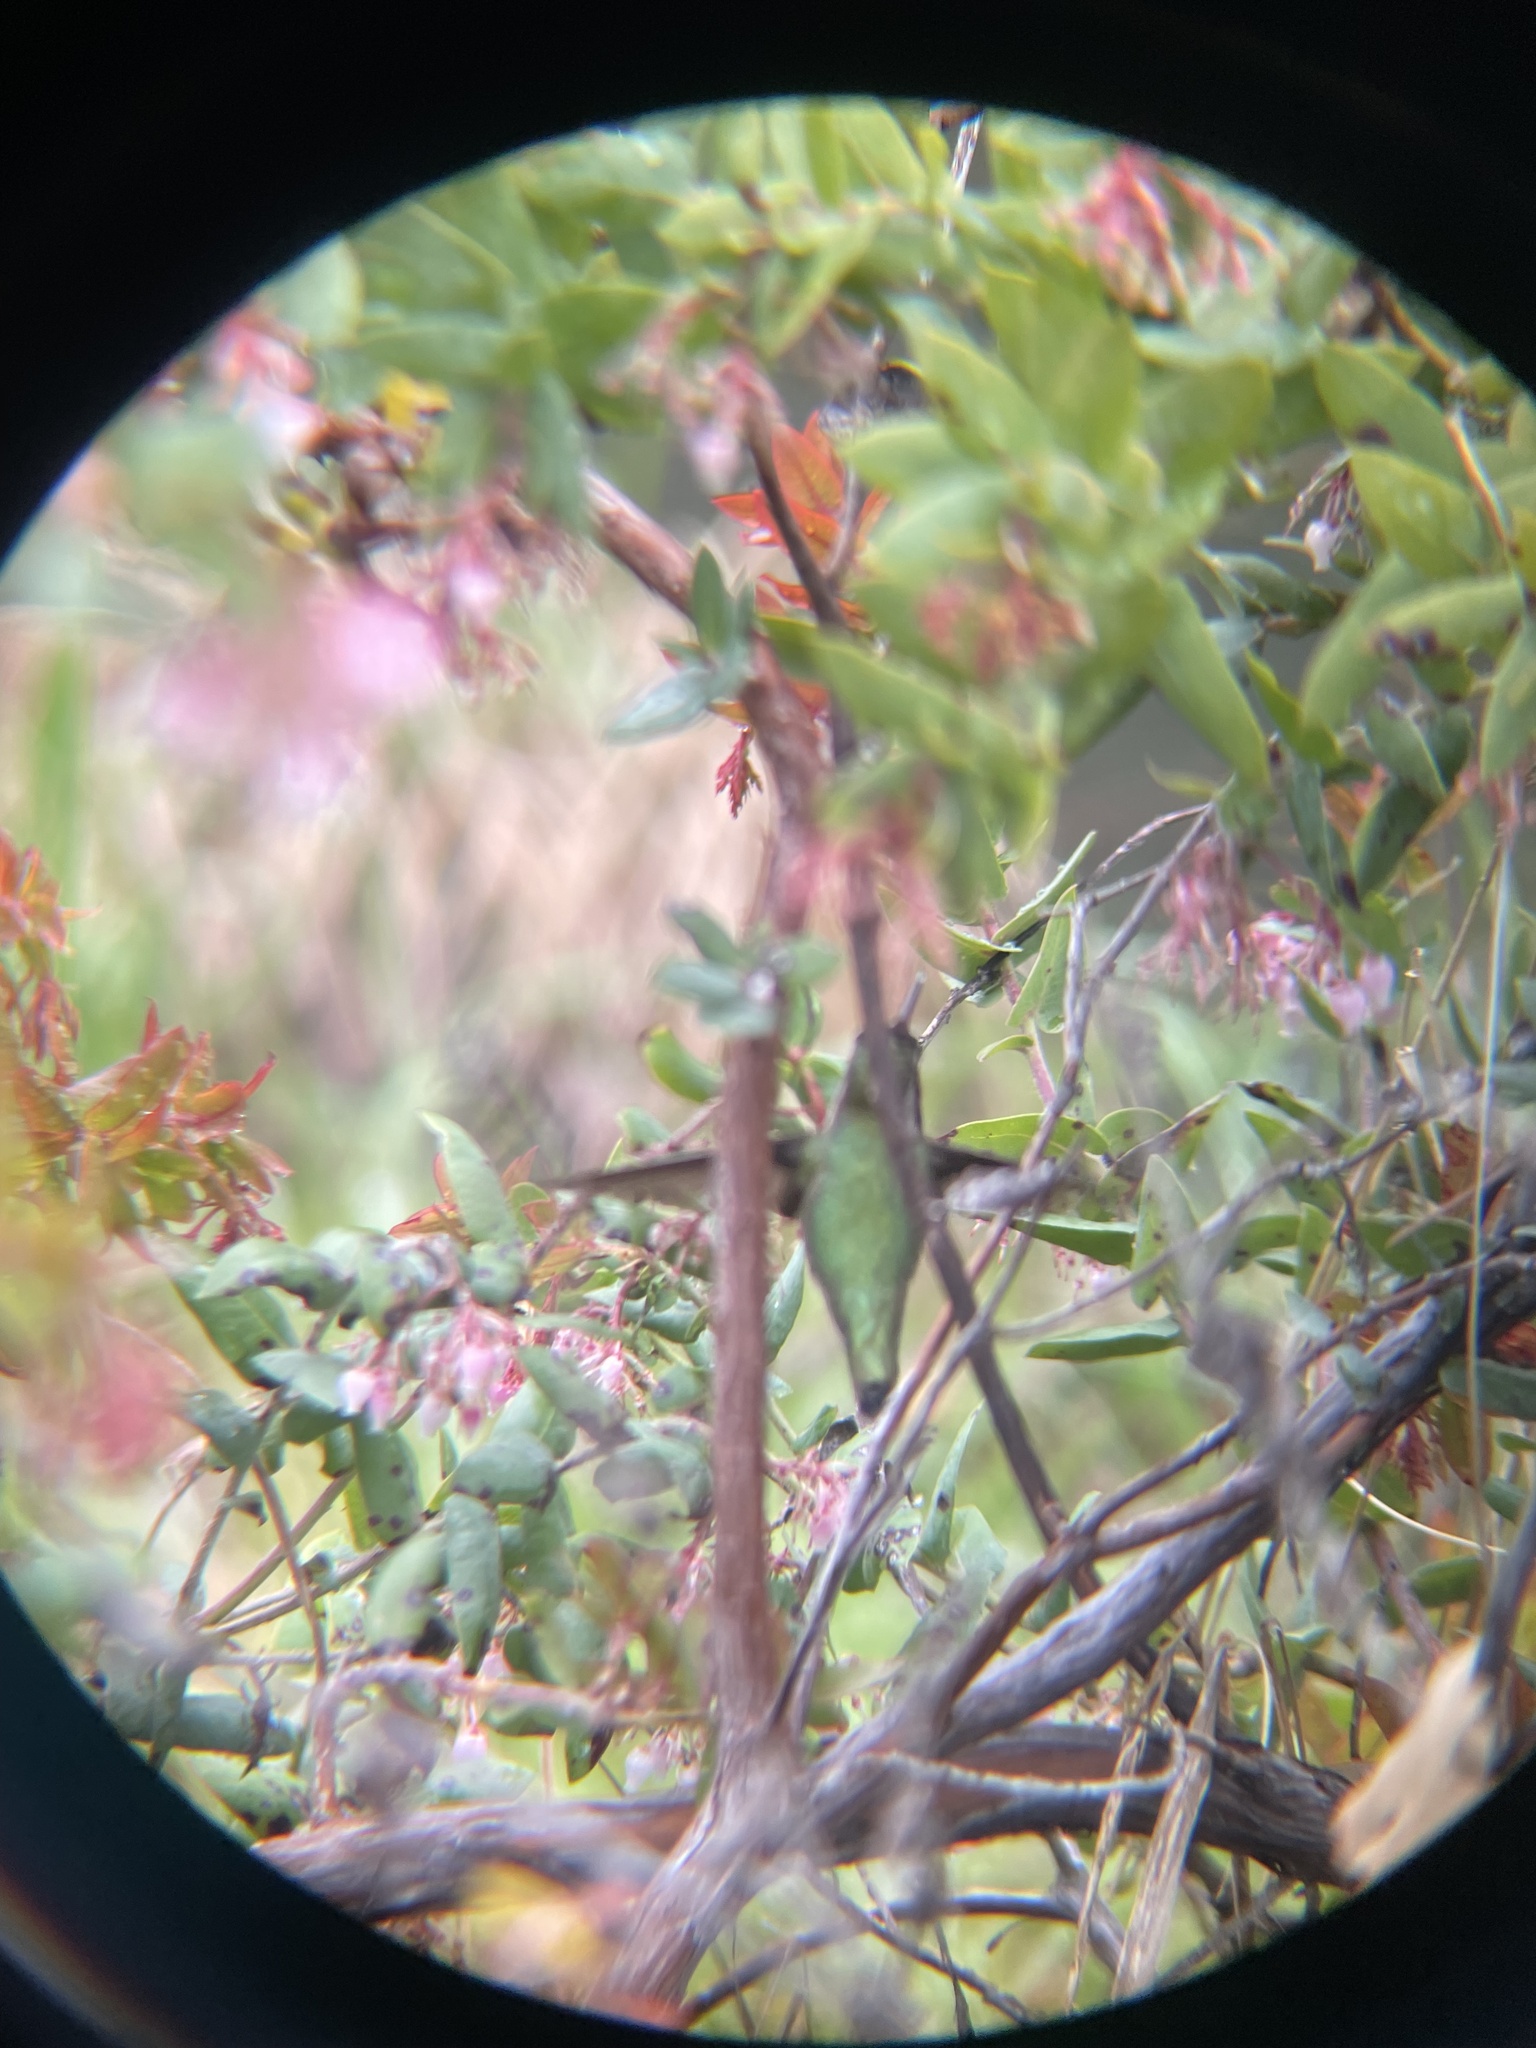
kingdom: Animalia
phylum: Chordata
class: Aves
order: Apodiformes
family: Trochilidae
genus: Calypte
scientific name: Calypte anna
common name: Anna's hummingbird
